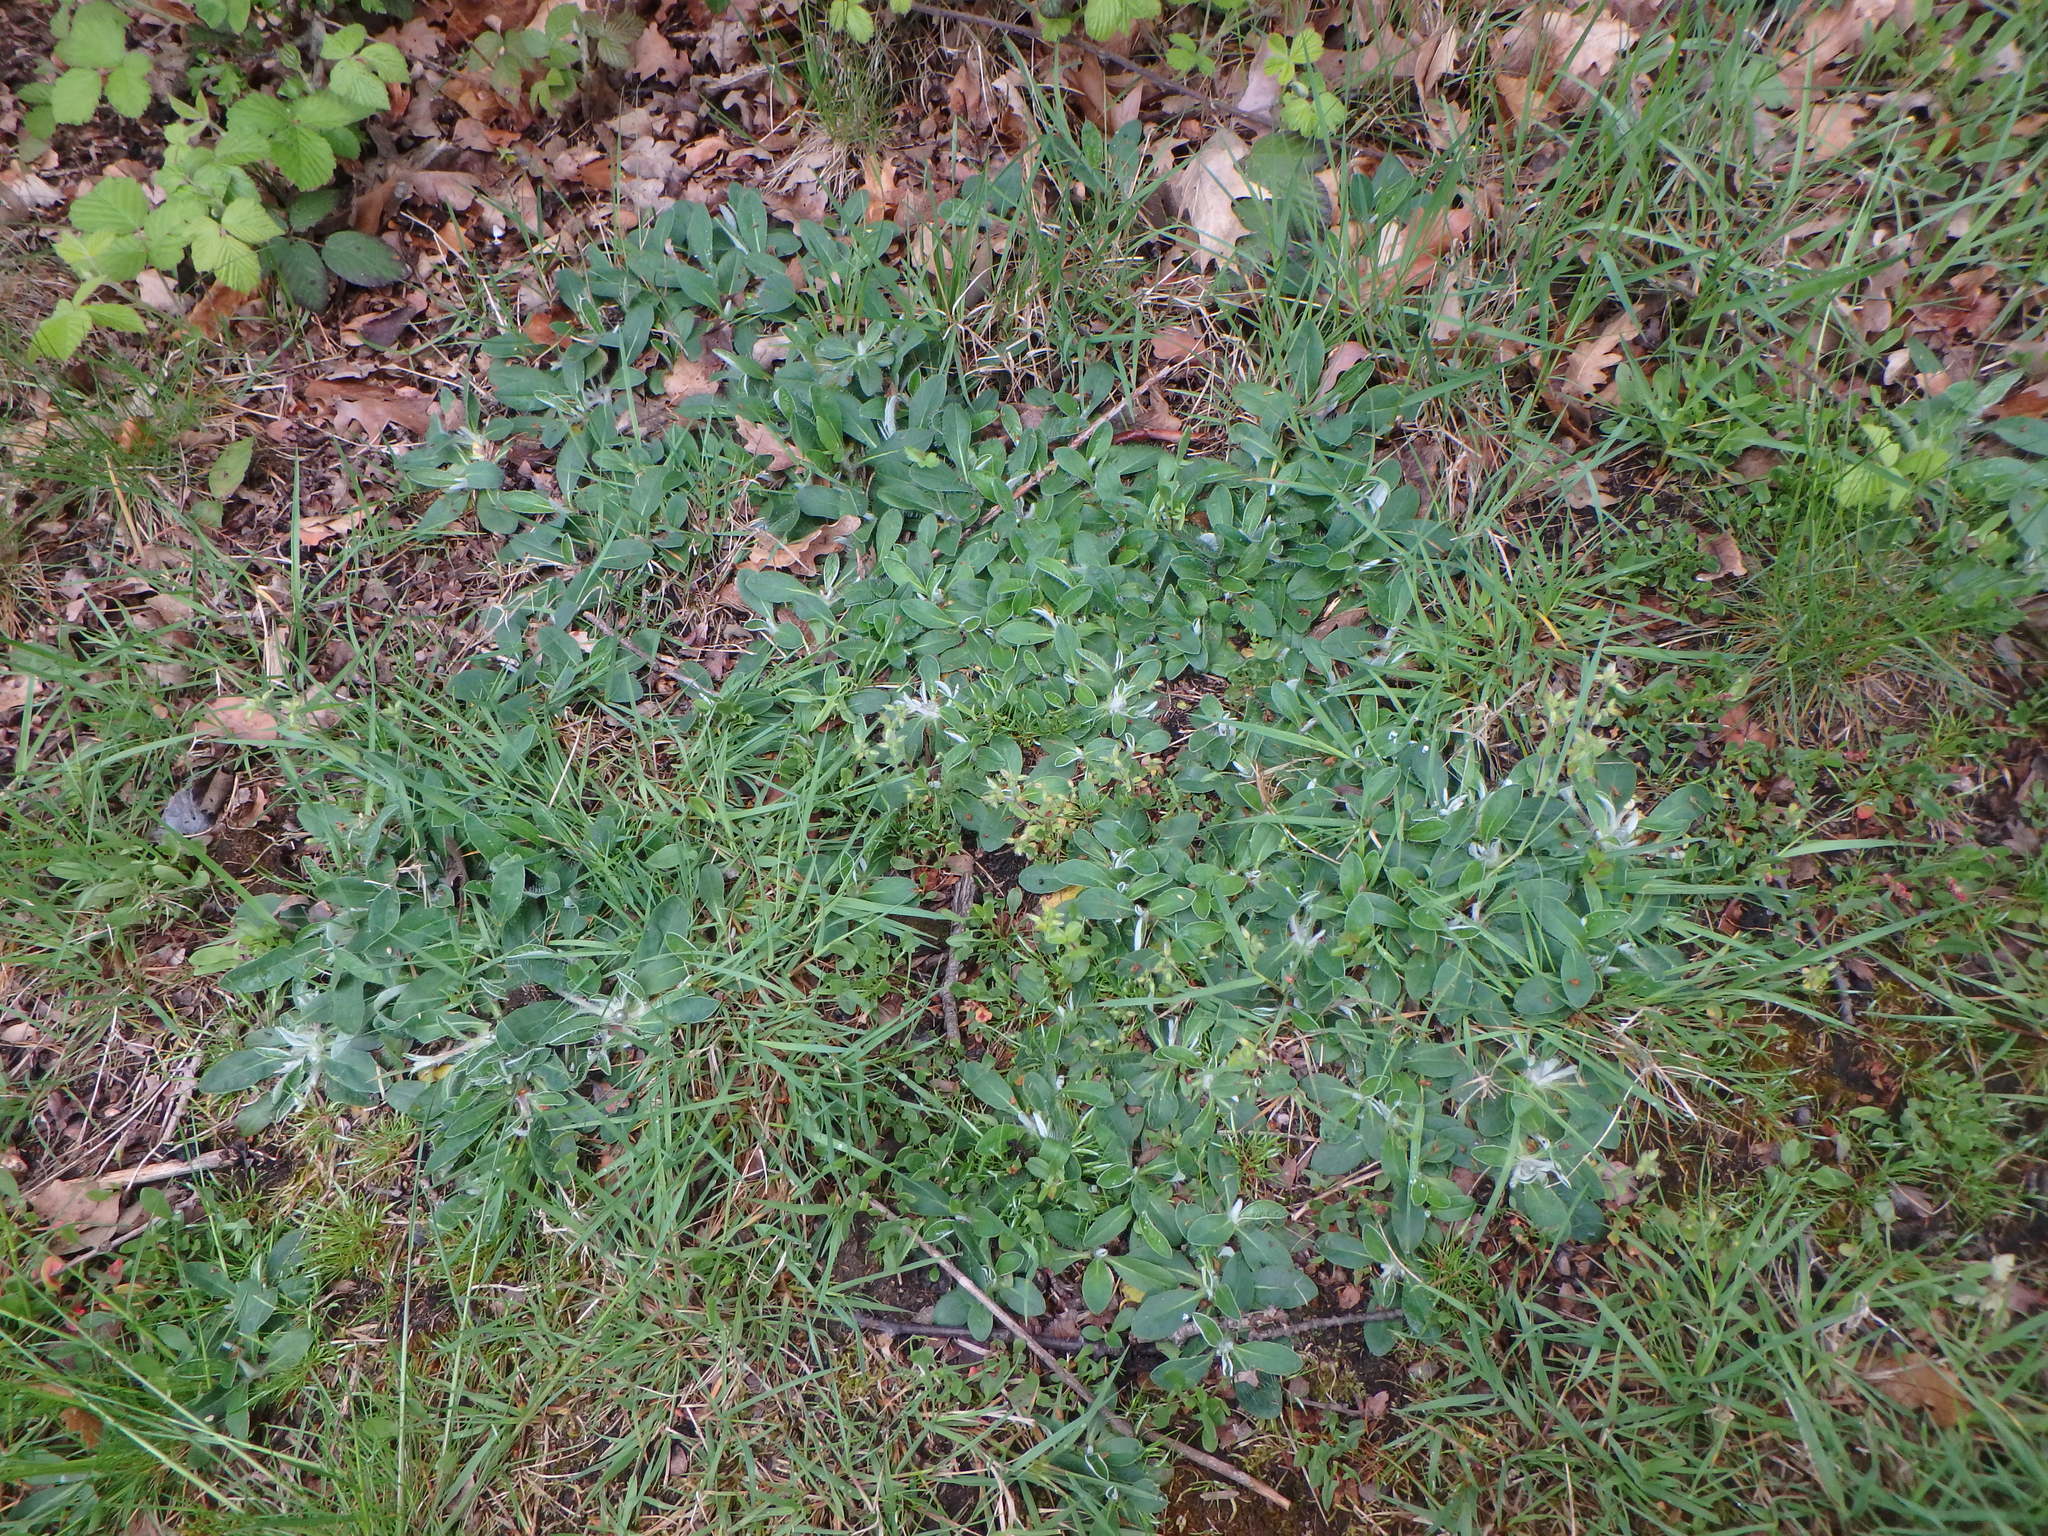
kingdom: Plantae
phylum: Tracheophyta
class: Magnoliopsida
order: Asterales
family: Asteraceae
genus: Pilosella
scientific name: Pilosella officinarum
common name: Mouse-ear hawkweed
